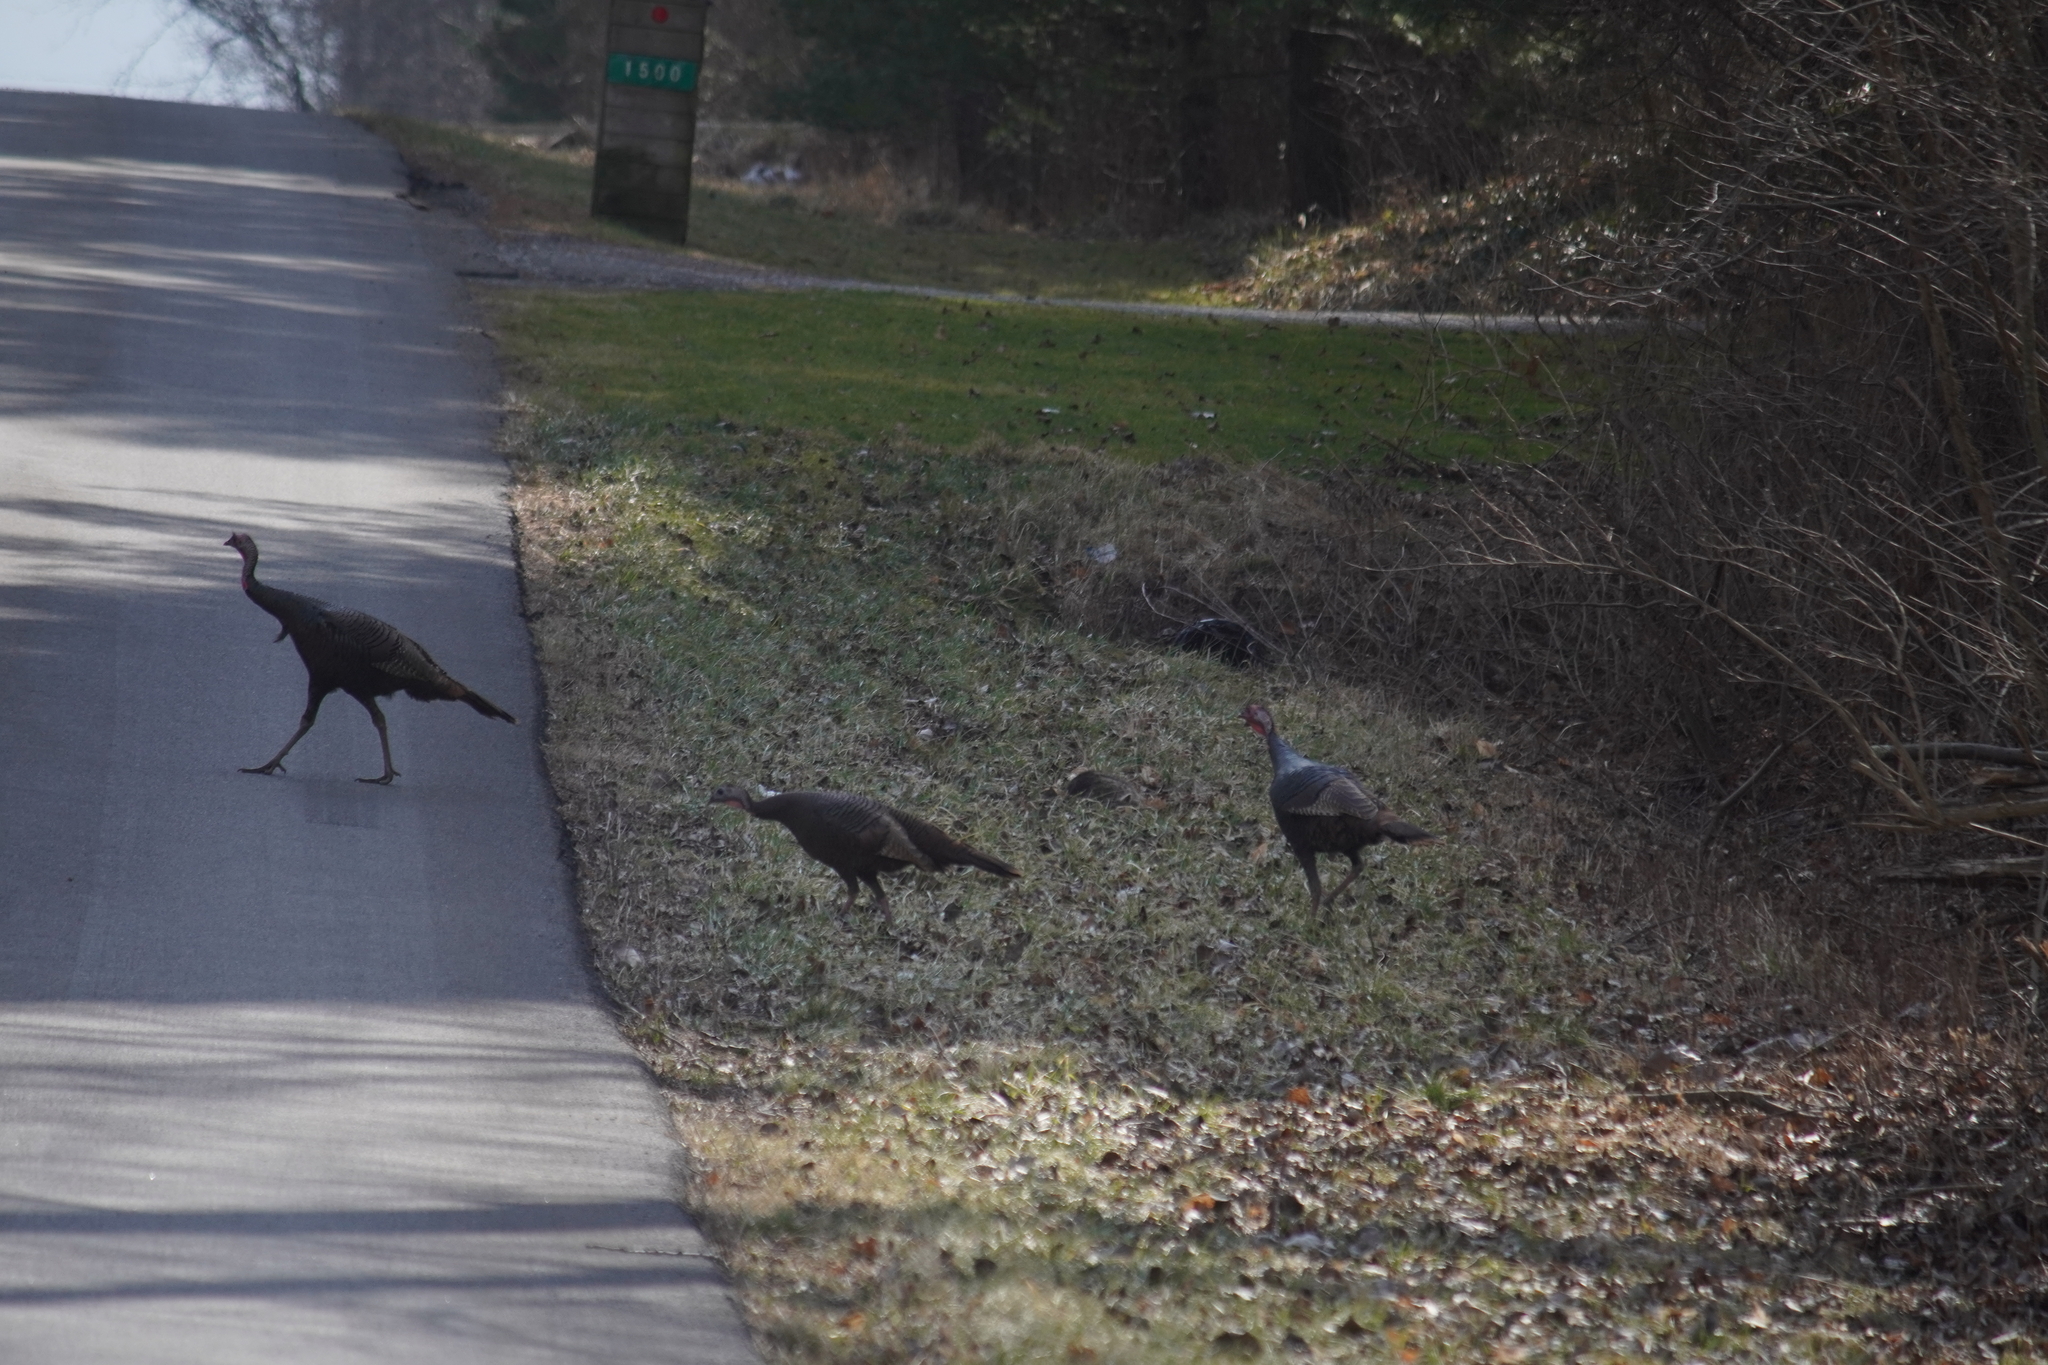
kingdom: Animalia
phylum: Chordata
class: Aves
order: Galliformes
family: Phasianidae
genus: Meleagris
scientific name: Meleagris gallopavo
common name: Wild turkey
